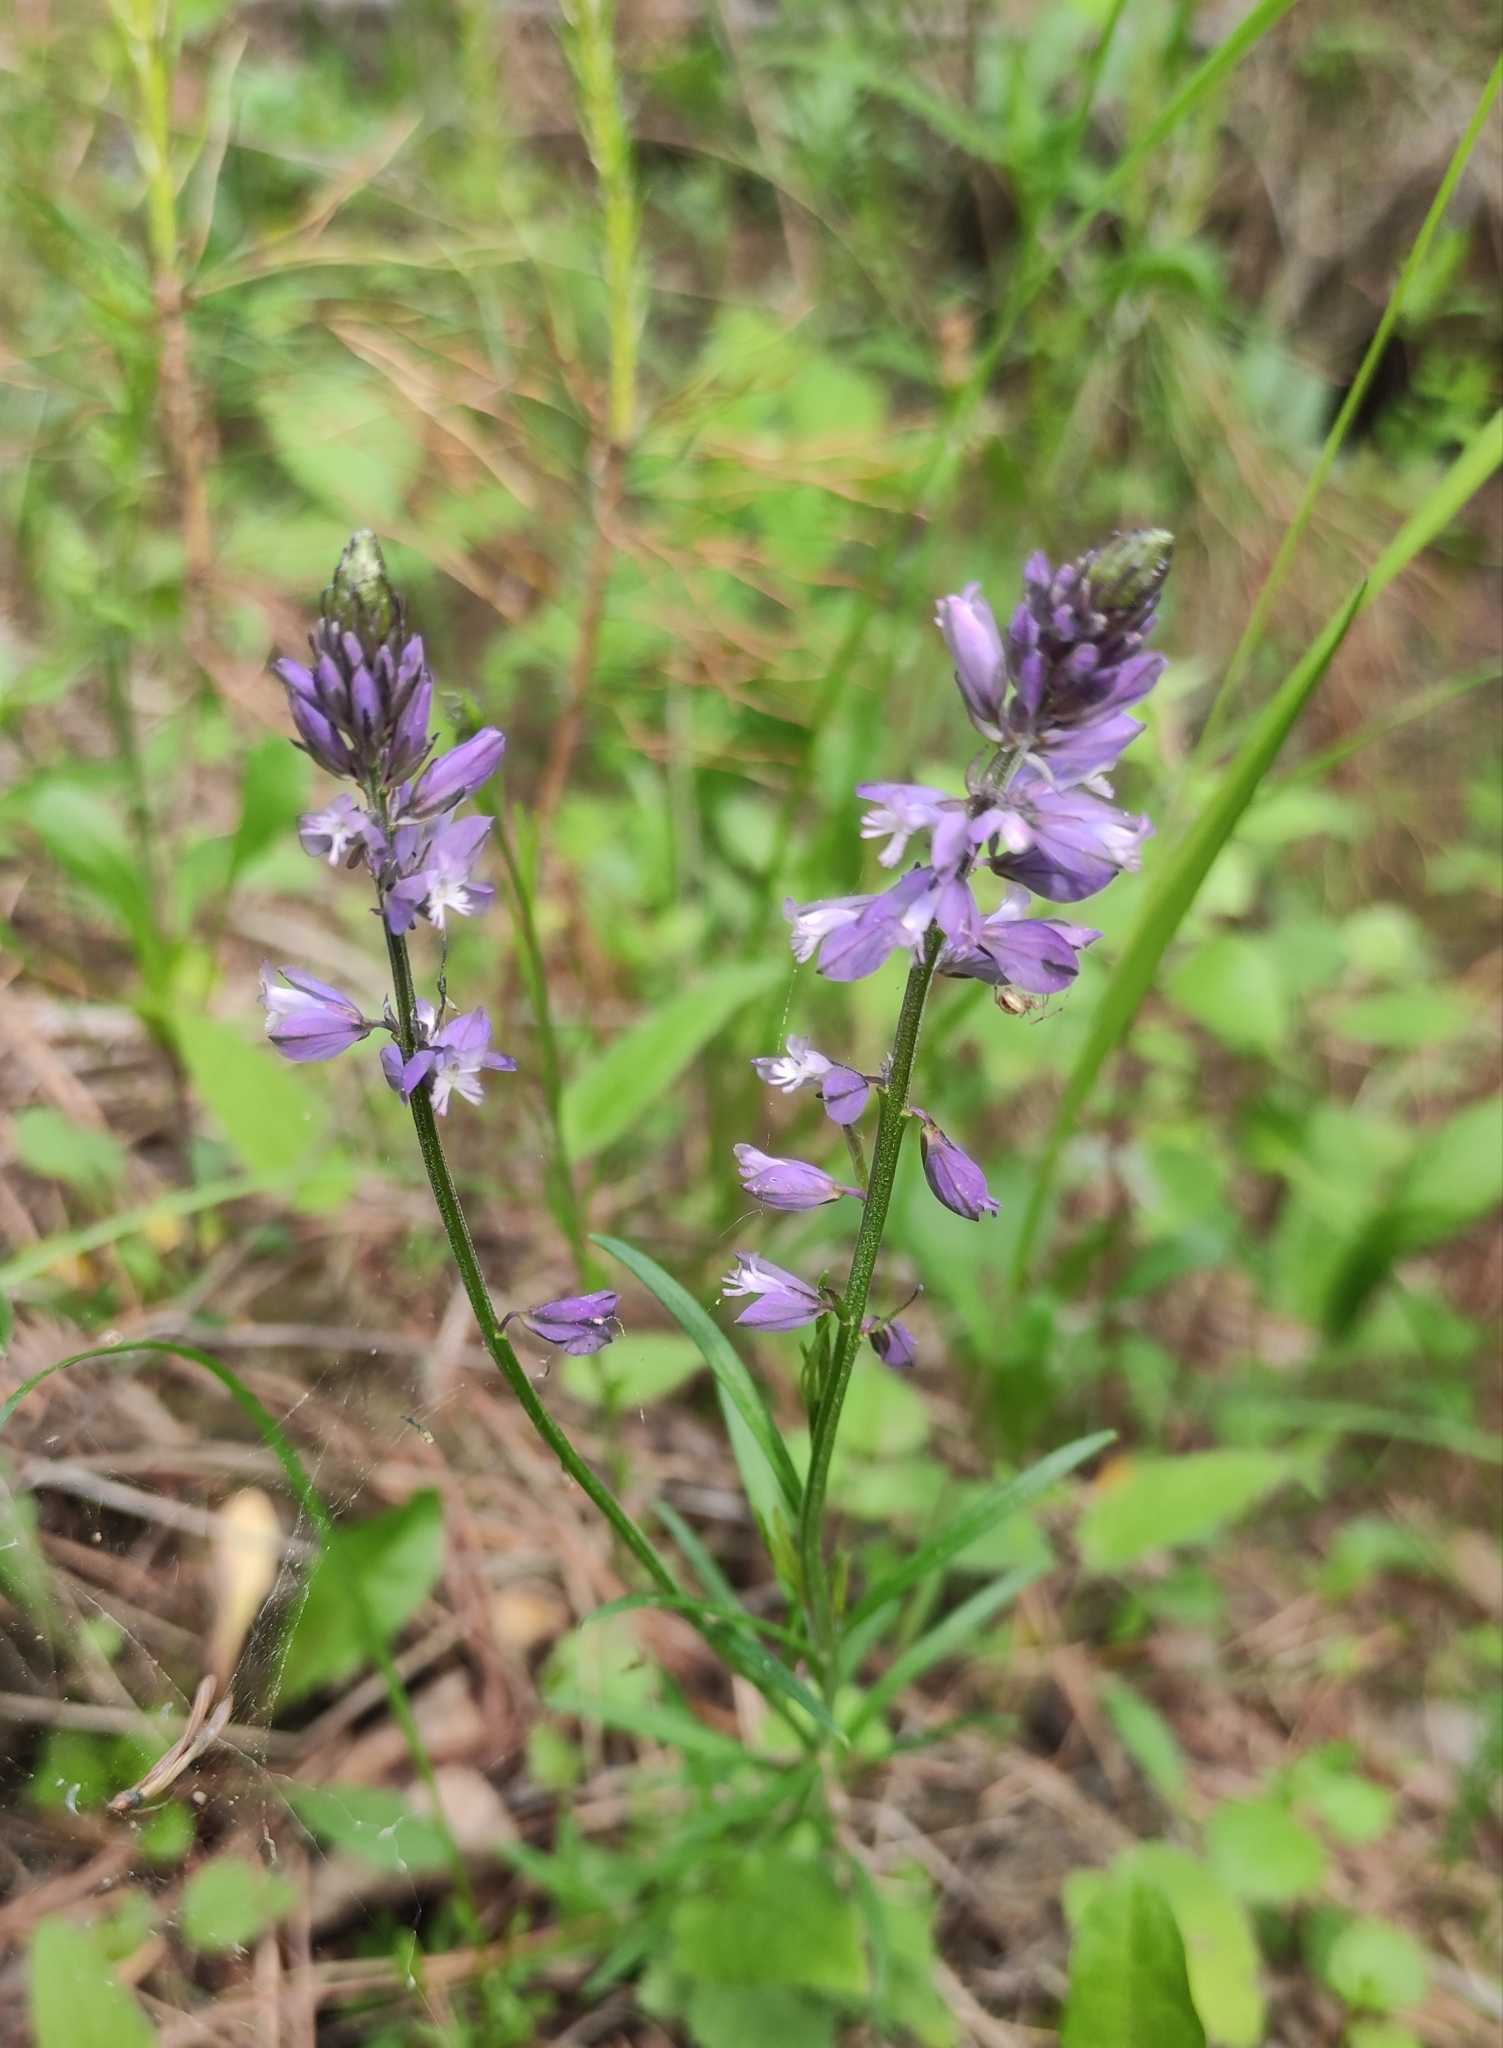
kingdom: Plantae
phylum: Tracheophyta
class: Magnoliopsida
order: Fabales
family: Polygalaceae
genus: Polygala
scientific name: Polygala comosa
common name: Tufted milkwort
